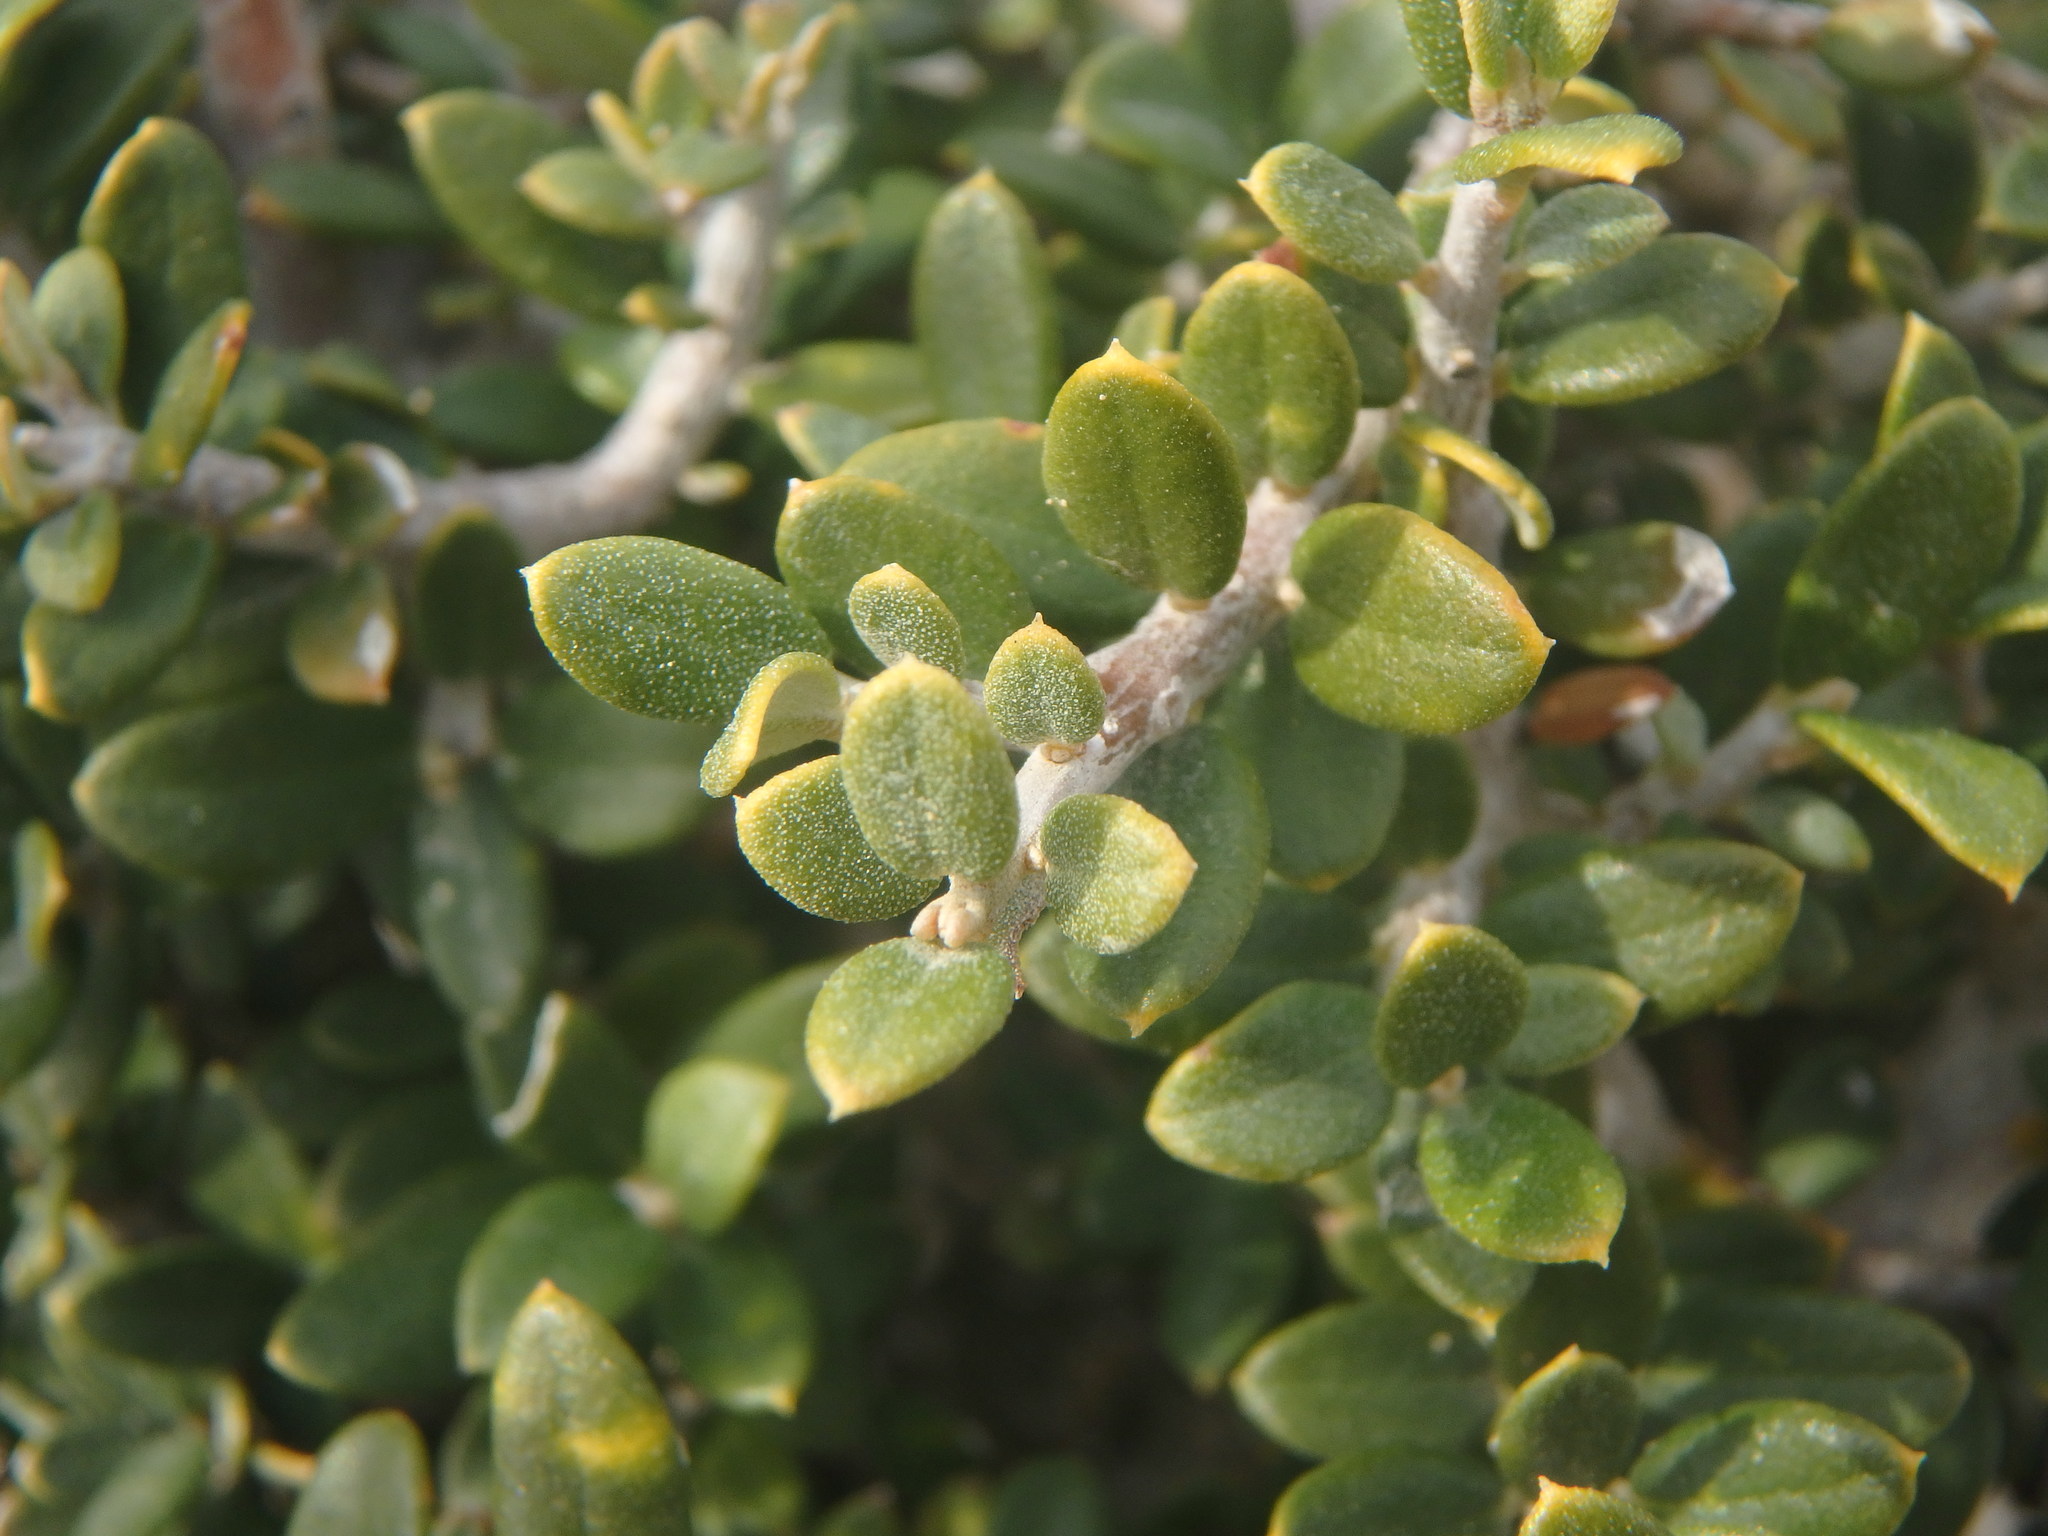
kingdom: Plantae
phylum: Tracheophyta
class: Magnoliopsida
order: Lamiales
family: Oleaceae
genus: Olea
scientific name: Olea europaea
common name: Olive
